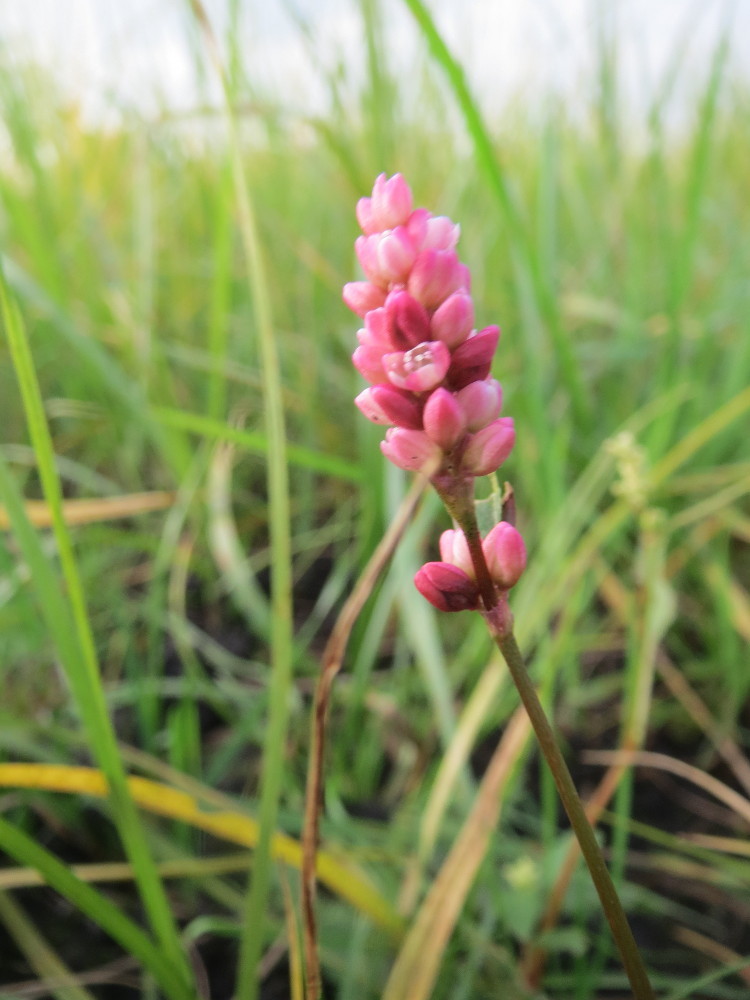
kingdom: Plantae
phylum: Tracheophyta
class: Magnoliopsida
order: Caryophyllales
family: Polygonaceae
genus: Persicaria
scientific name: Persicaria maculosa
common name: Redshank
